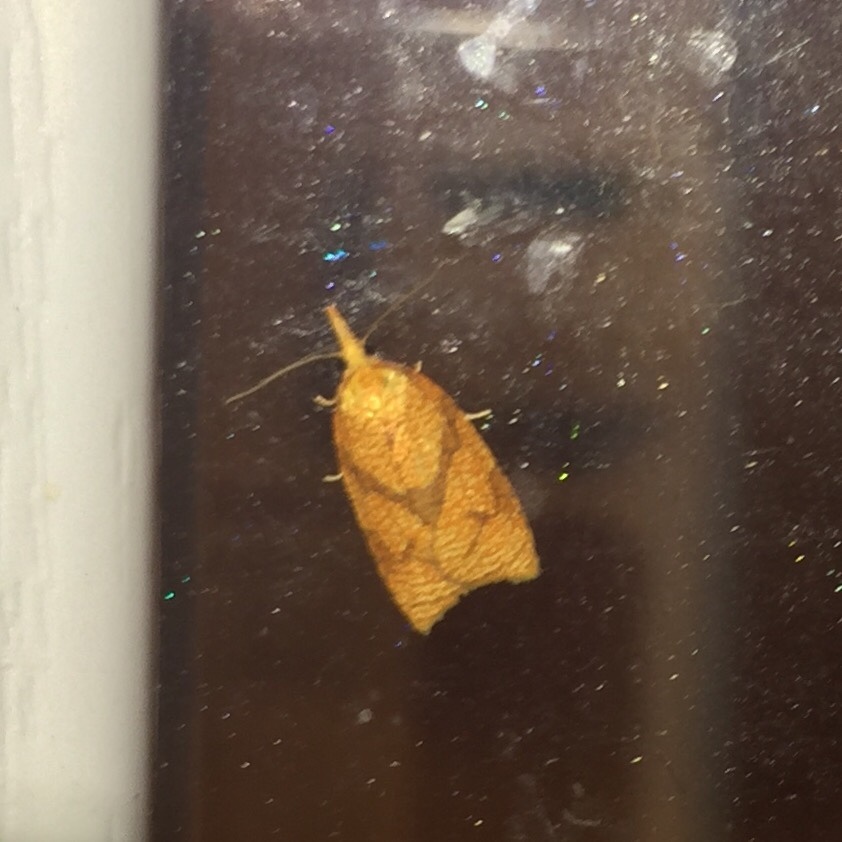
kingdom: Animalia
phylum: Arthropoda
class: Insecta
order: Lepidoptera
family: Tortricidae
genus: Cenopis
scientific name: Cenopis reticulatana
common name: Reticulated fruitworm moth
